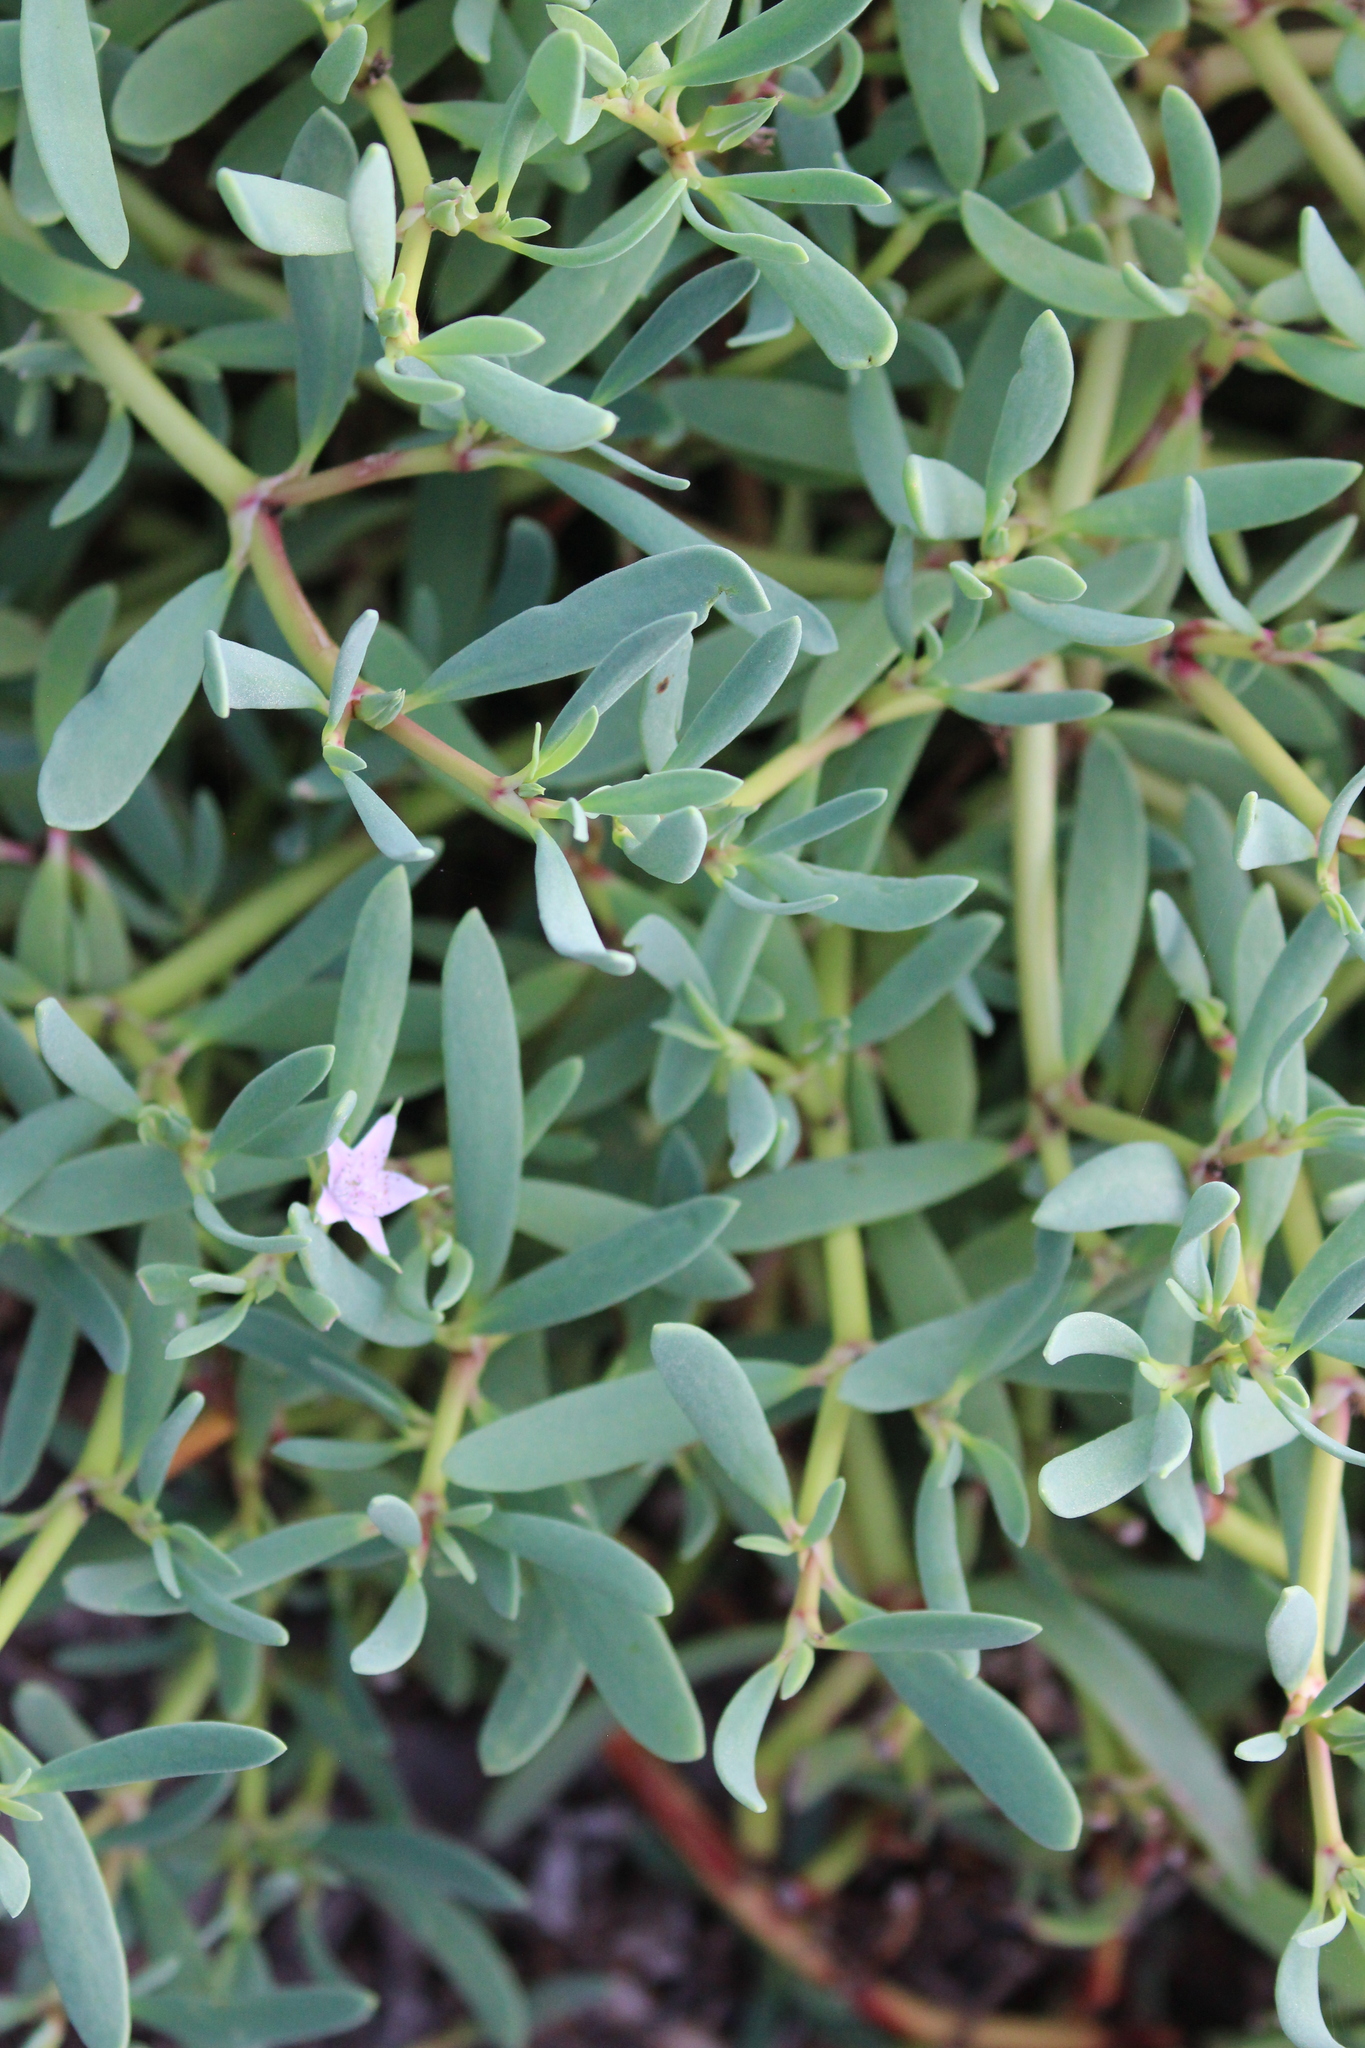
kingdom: Plantae
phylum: Tracheophyta
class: Magnoliopsida
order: Caryophyllales
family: Aizoaceae
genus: Sesuvium
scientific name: Sesuvium portulacastrum
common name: Sea-purslane
